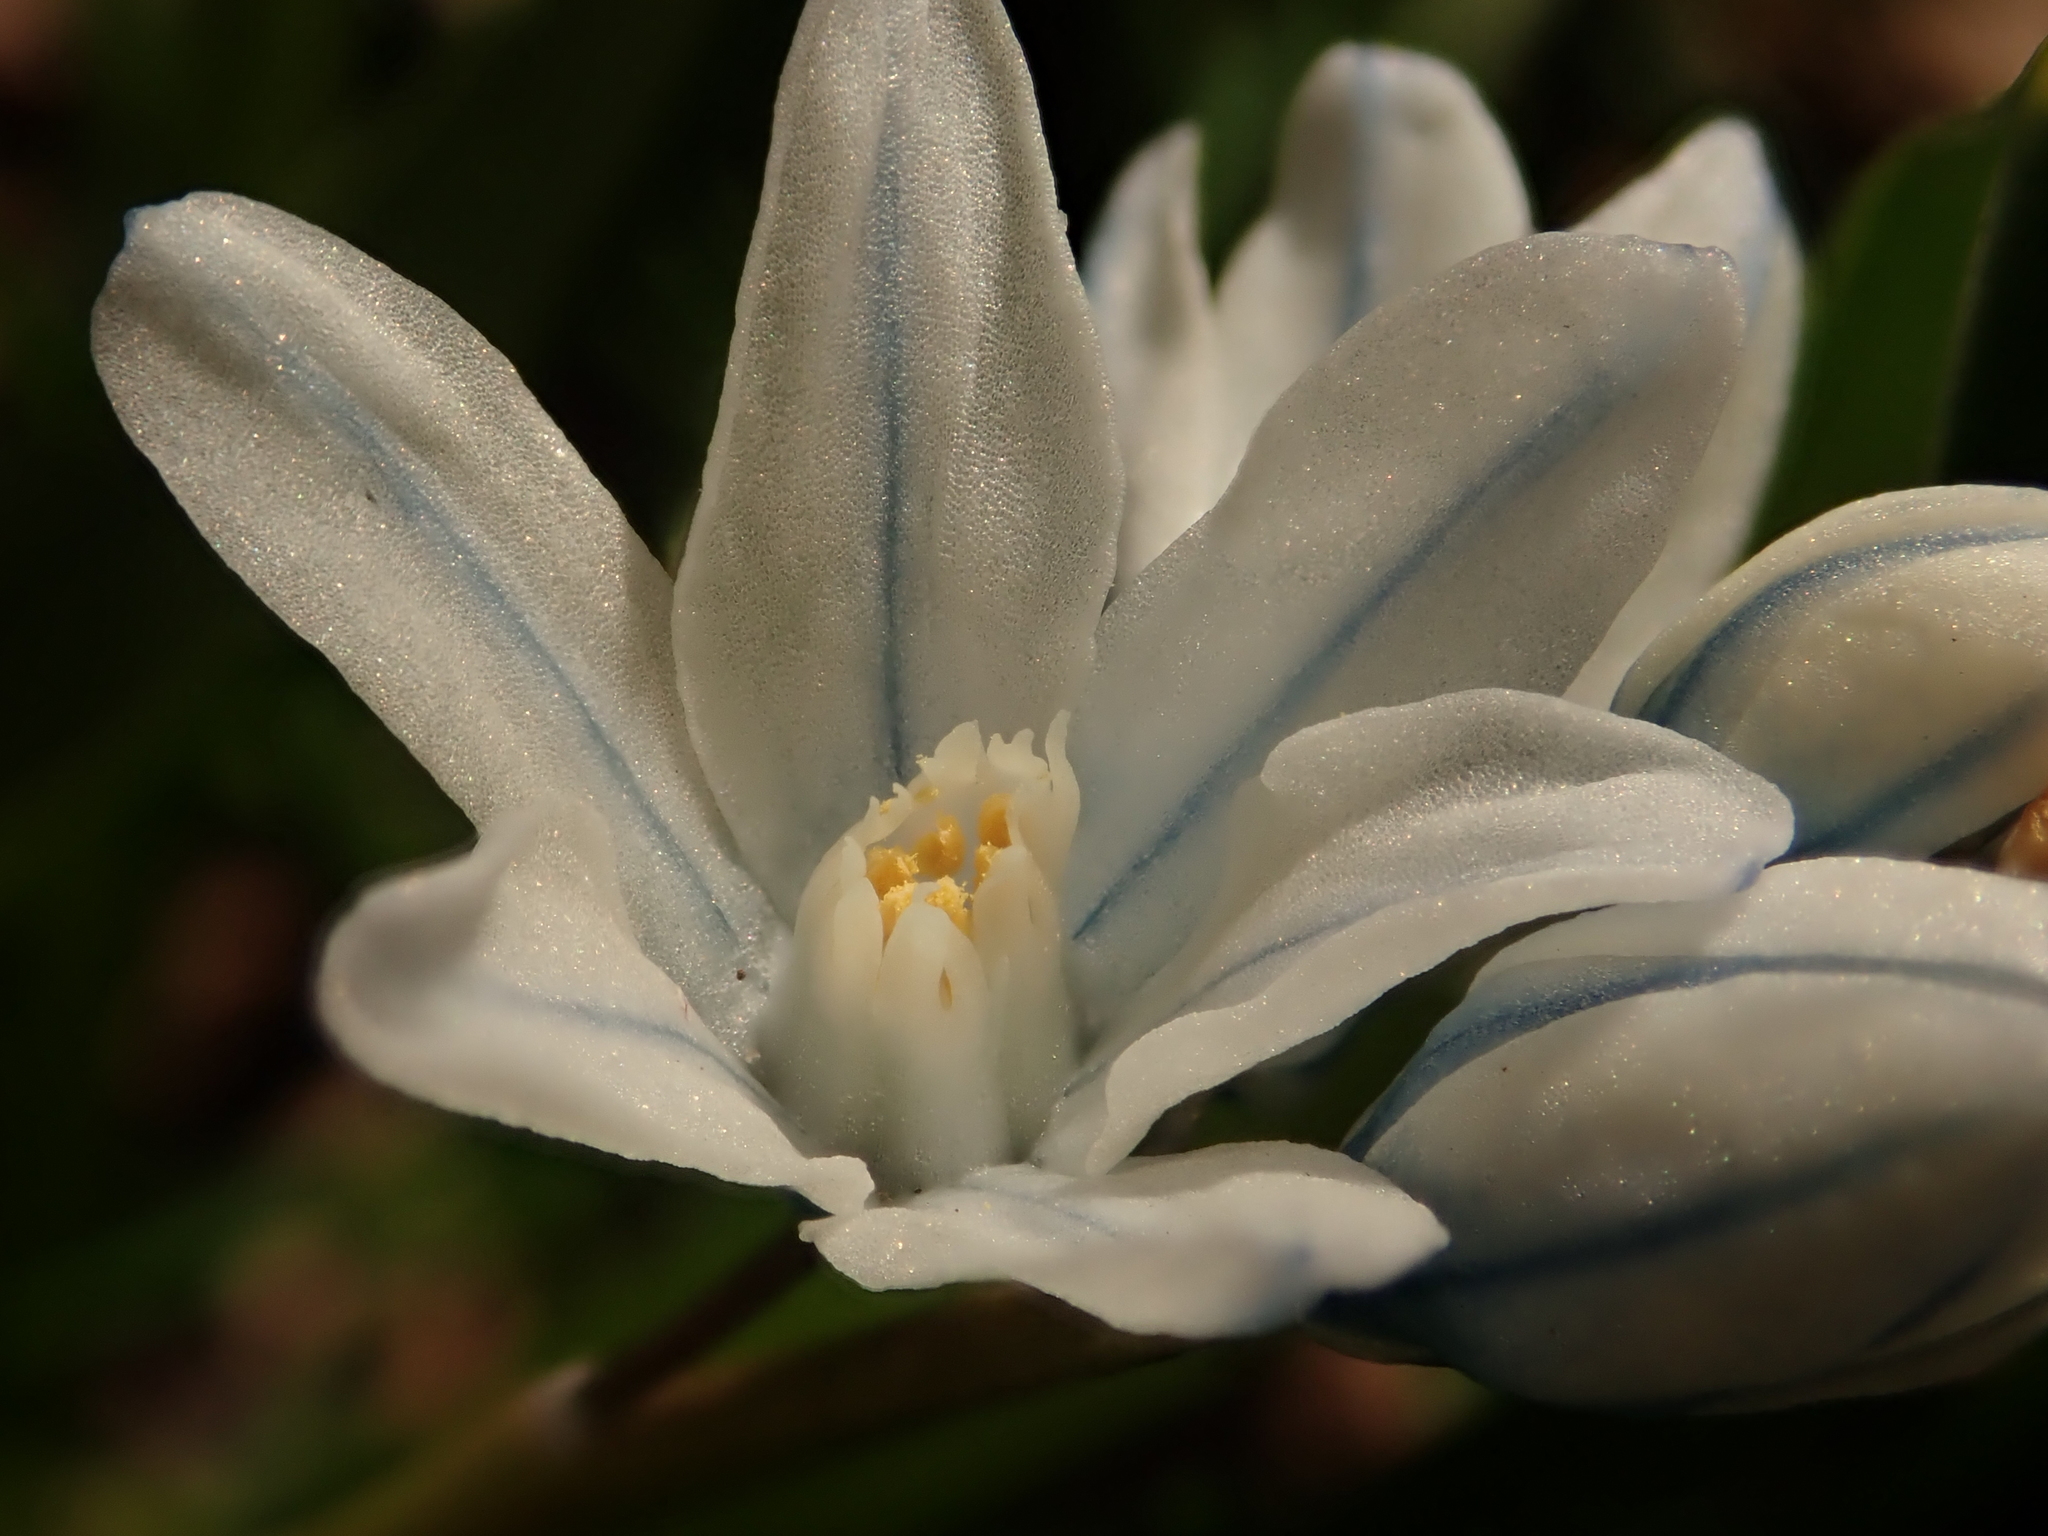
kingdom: Plantae
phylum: Tracheophyta
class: Liliopsida
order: Asparagales
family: Asparagaceae
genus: Puschkinia
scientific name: Puschkinia scilloides
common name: Striped squill
